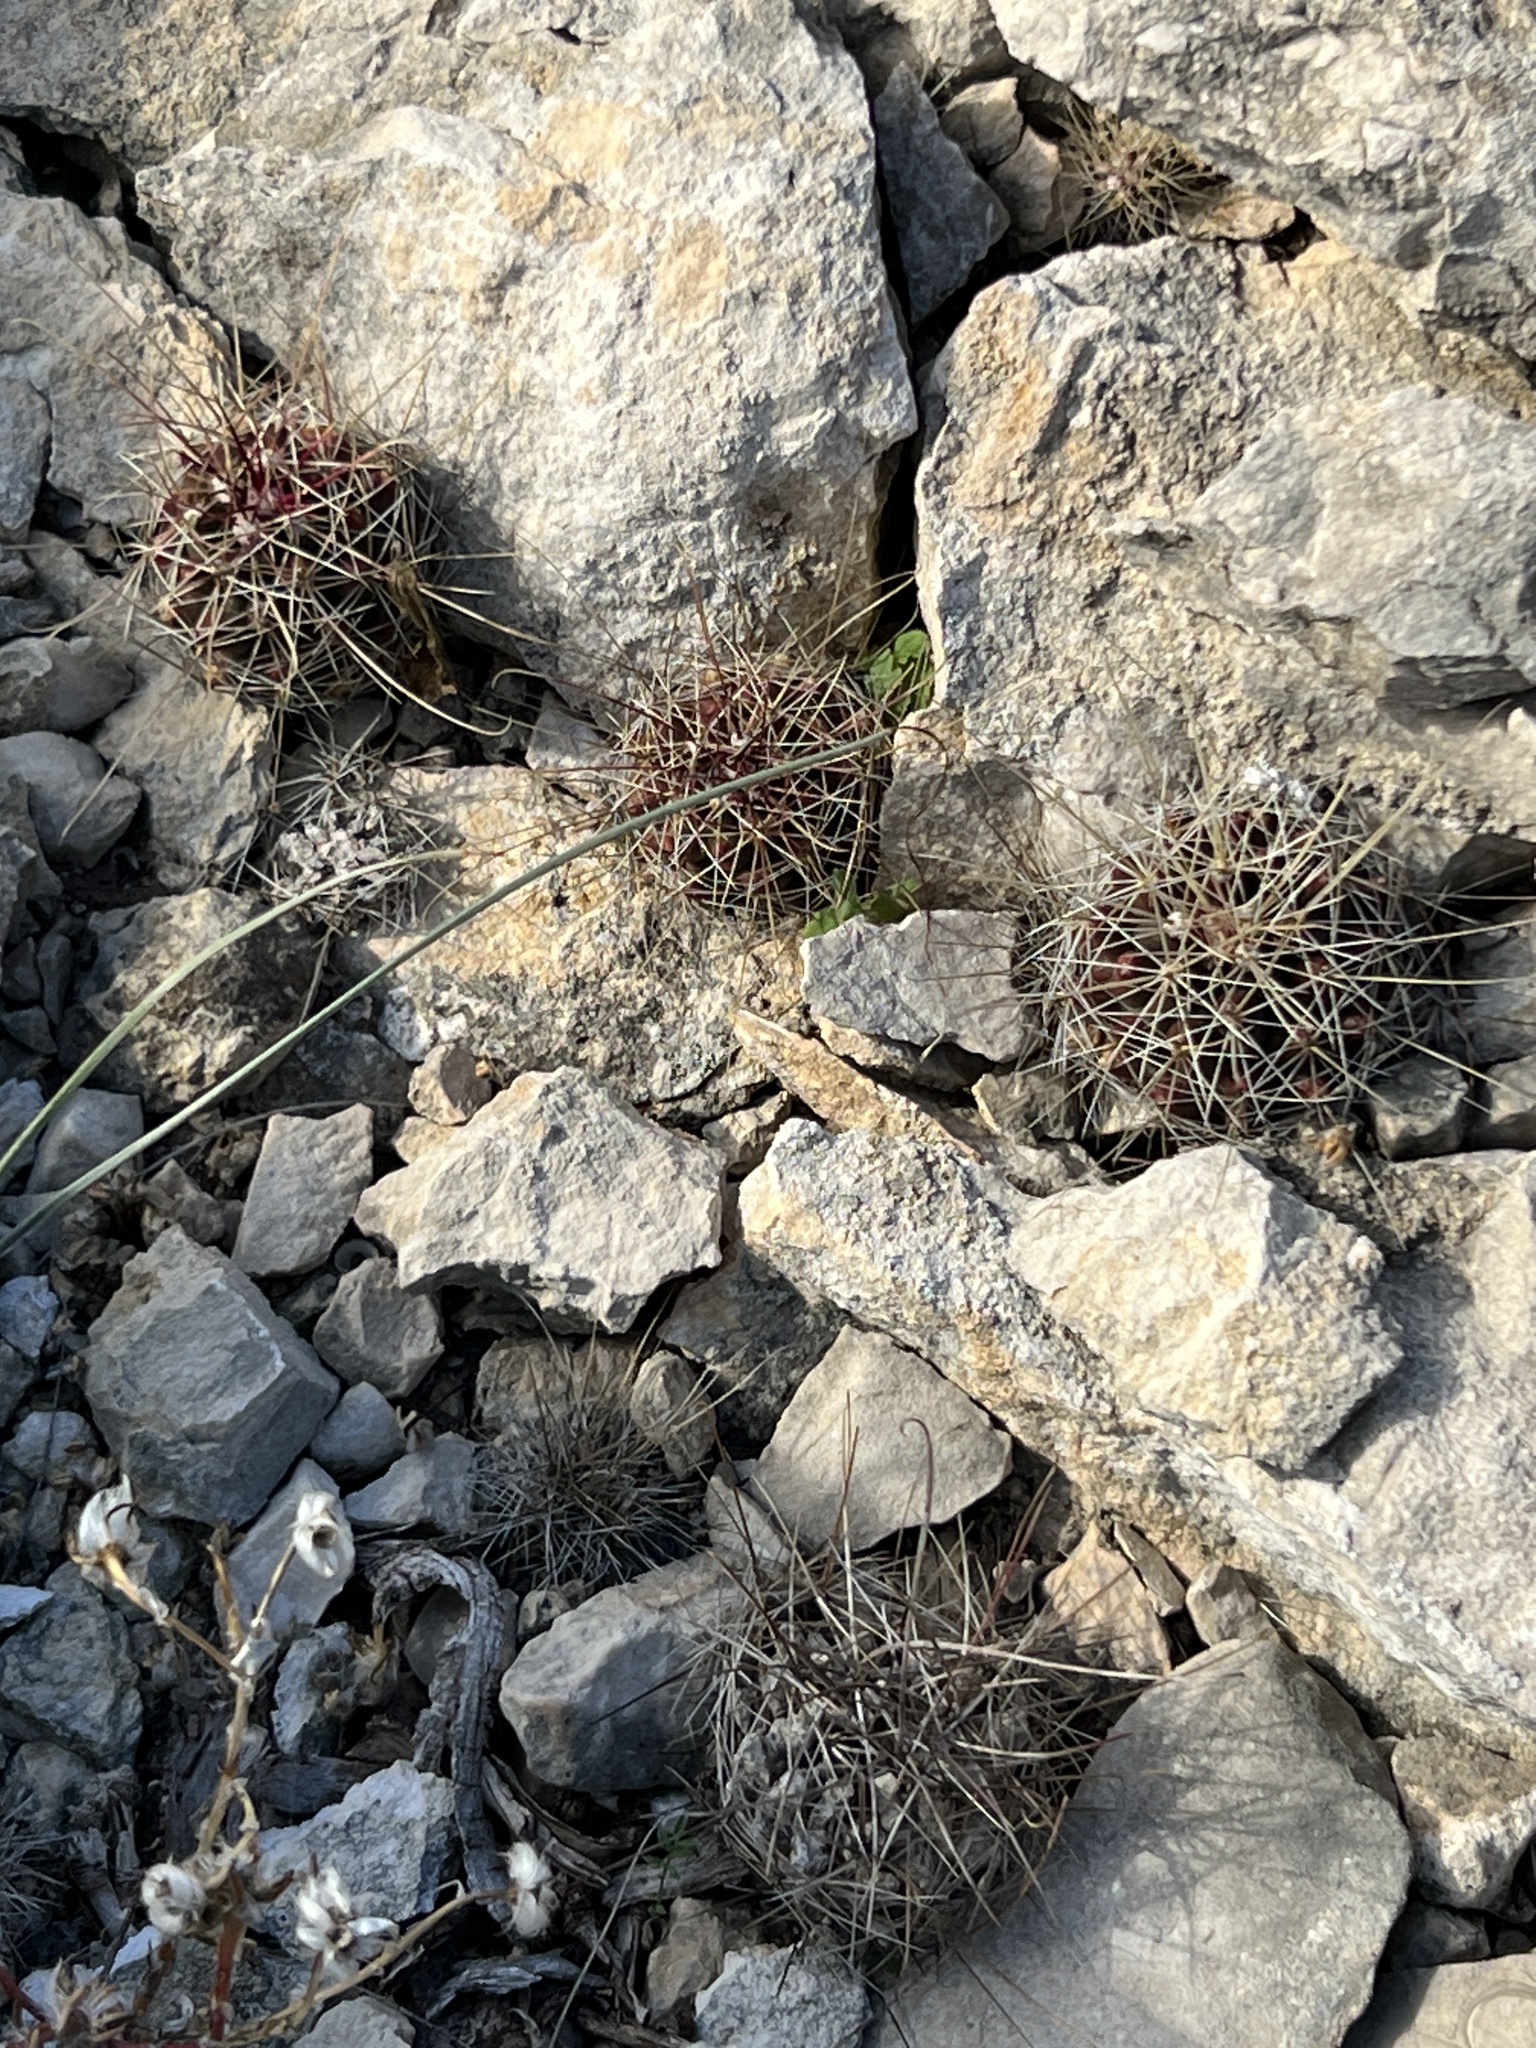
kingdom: Plantae
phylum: Tracheophyta
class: Magnoliopsida
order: Caryophyllales
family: Cactaceae
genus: Bisnaga
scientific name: Bisnaga hamatacantha
